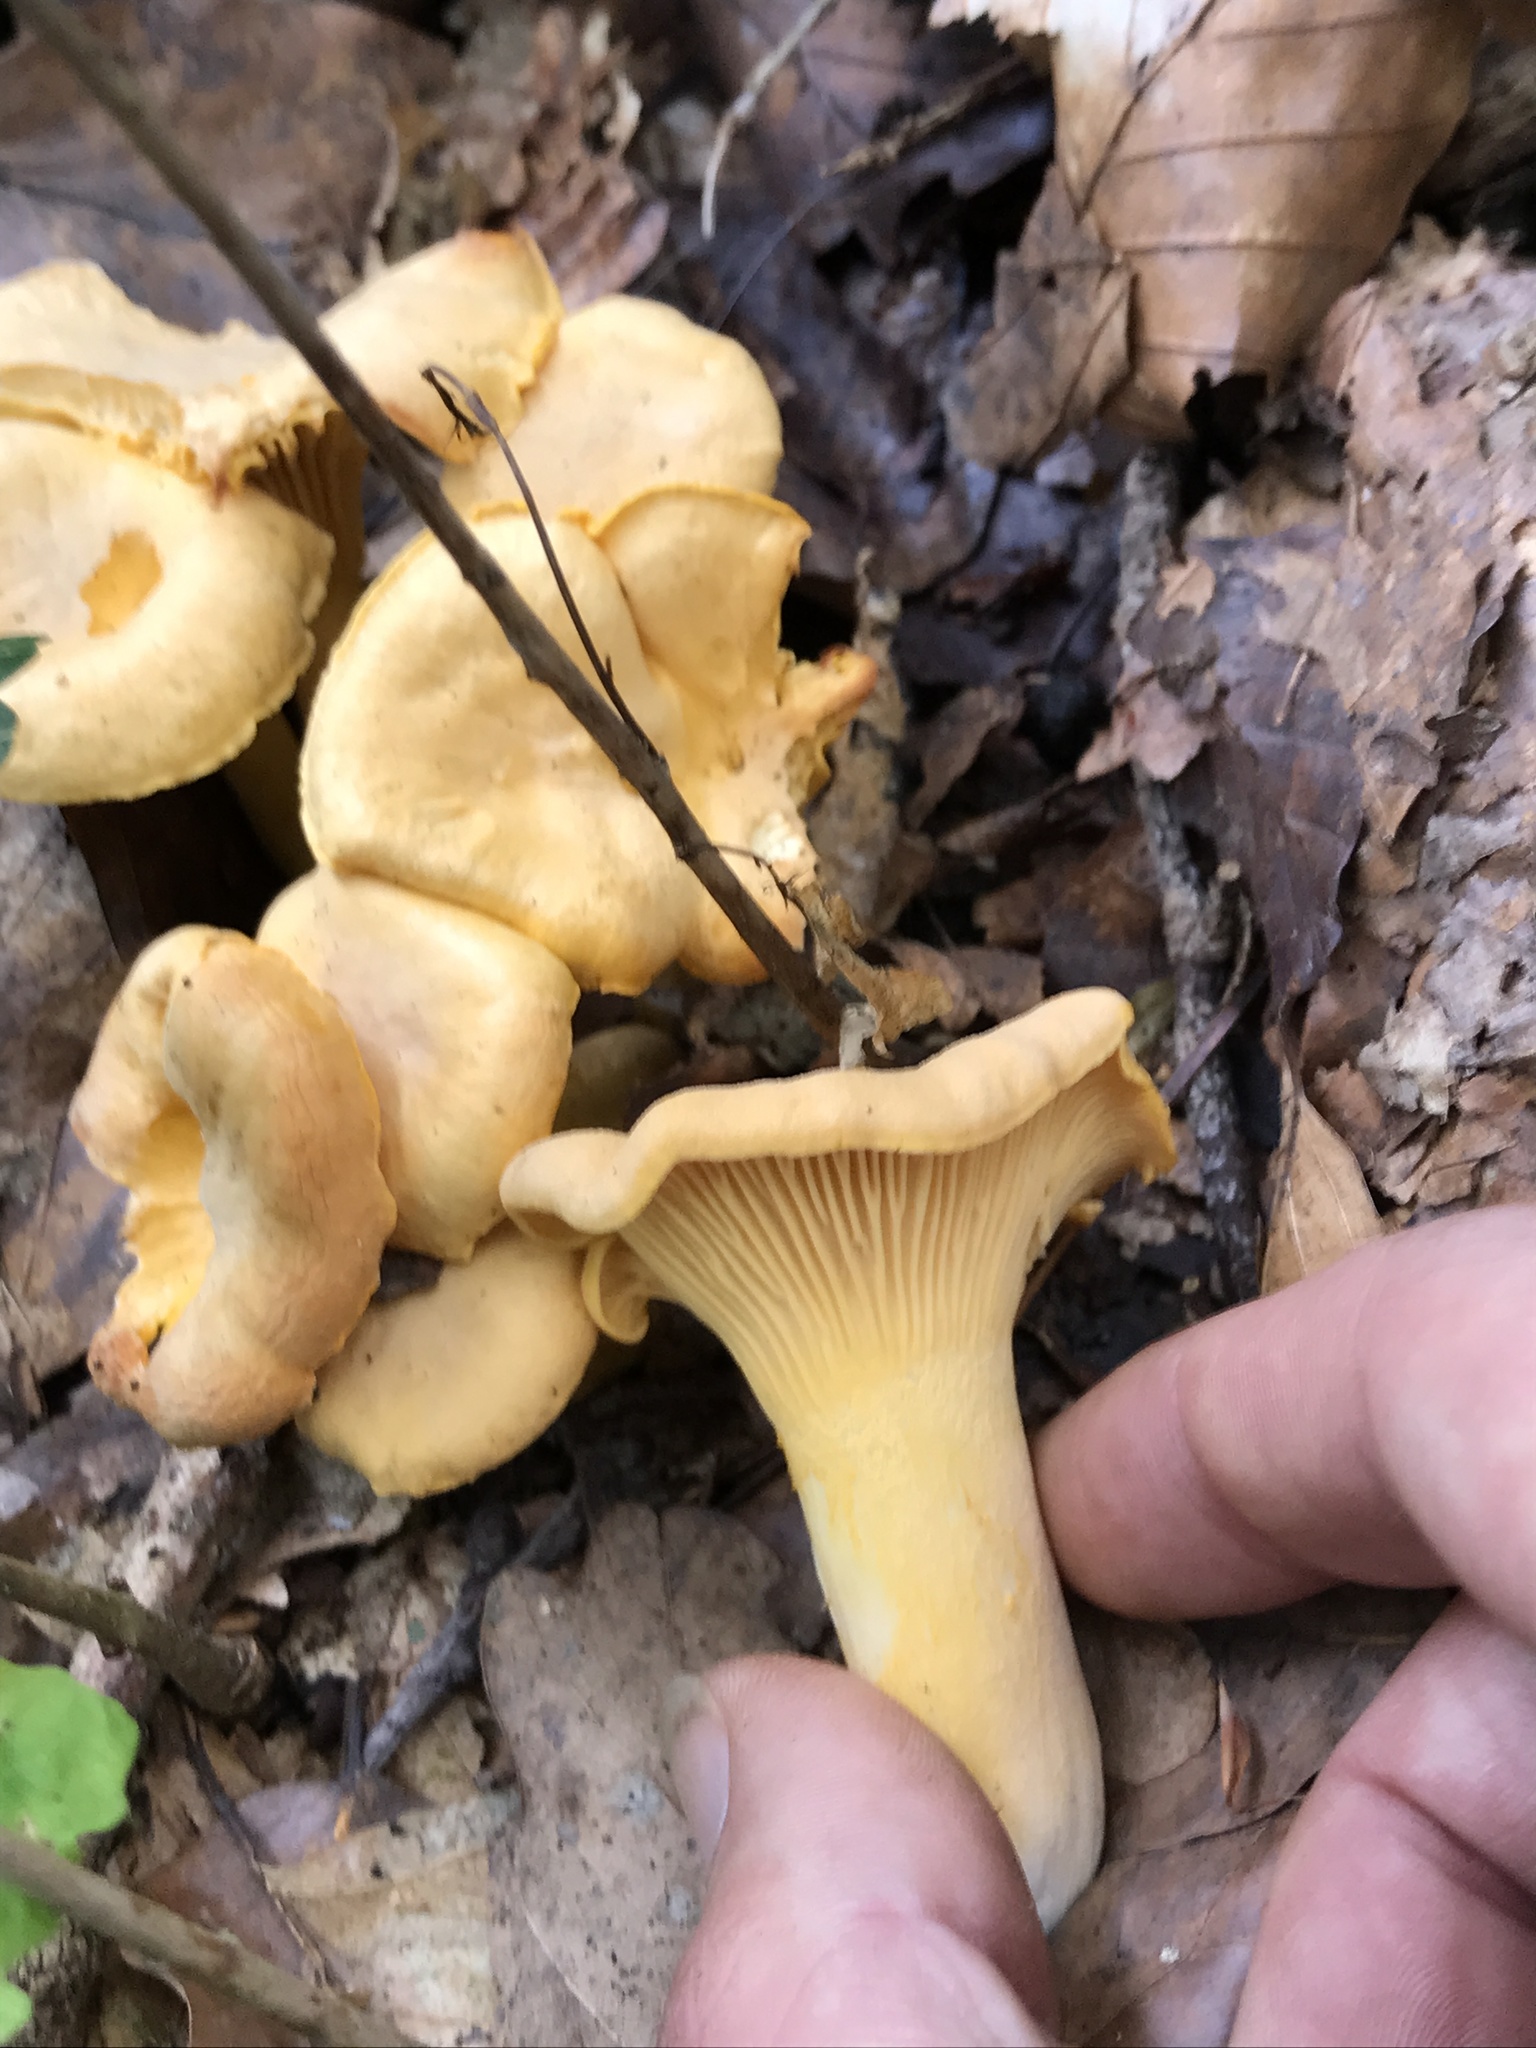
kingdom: Fungi
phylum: Basidiomycota
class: Agaricomycetes
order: Cantharellales
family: Hydnaceae
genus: Cantharellus
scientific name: Cantharellus cibarius
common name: Chanterelle
